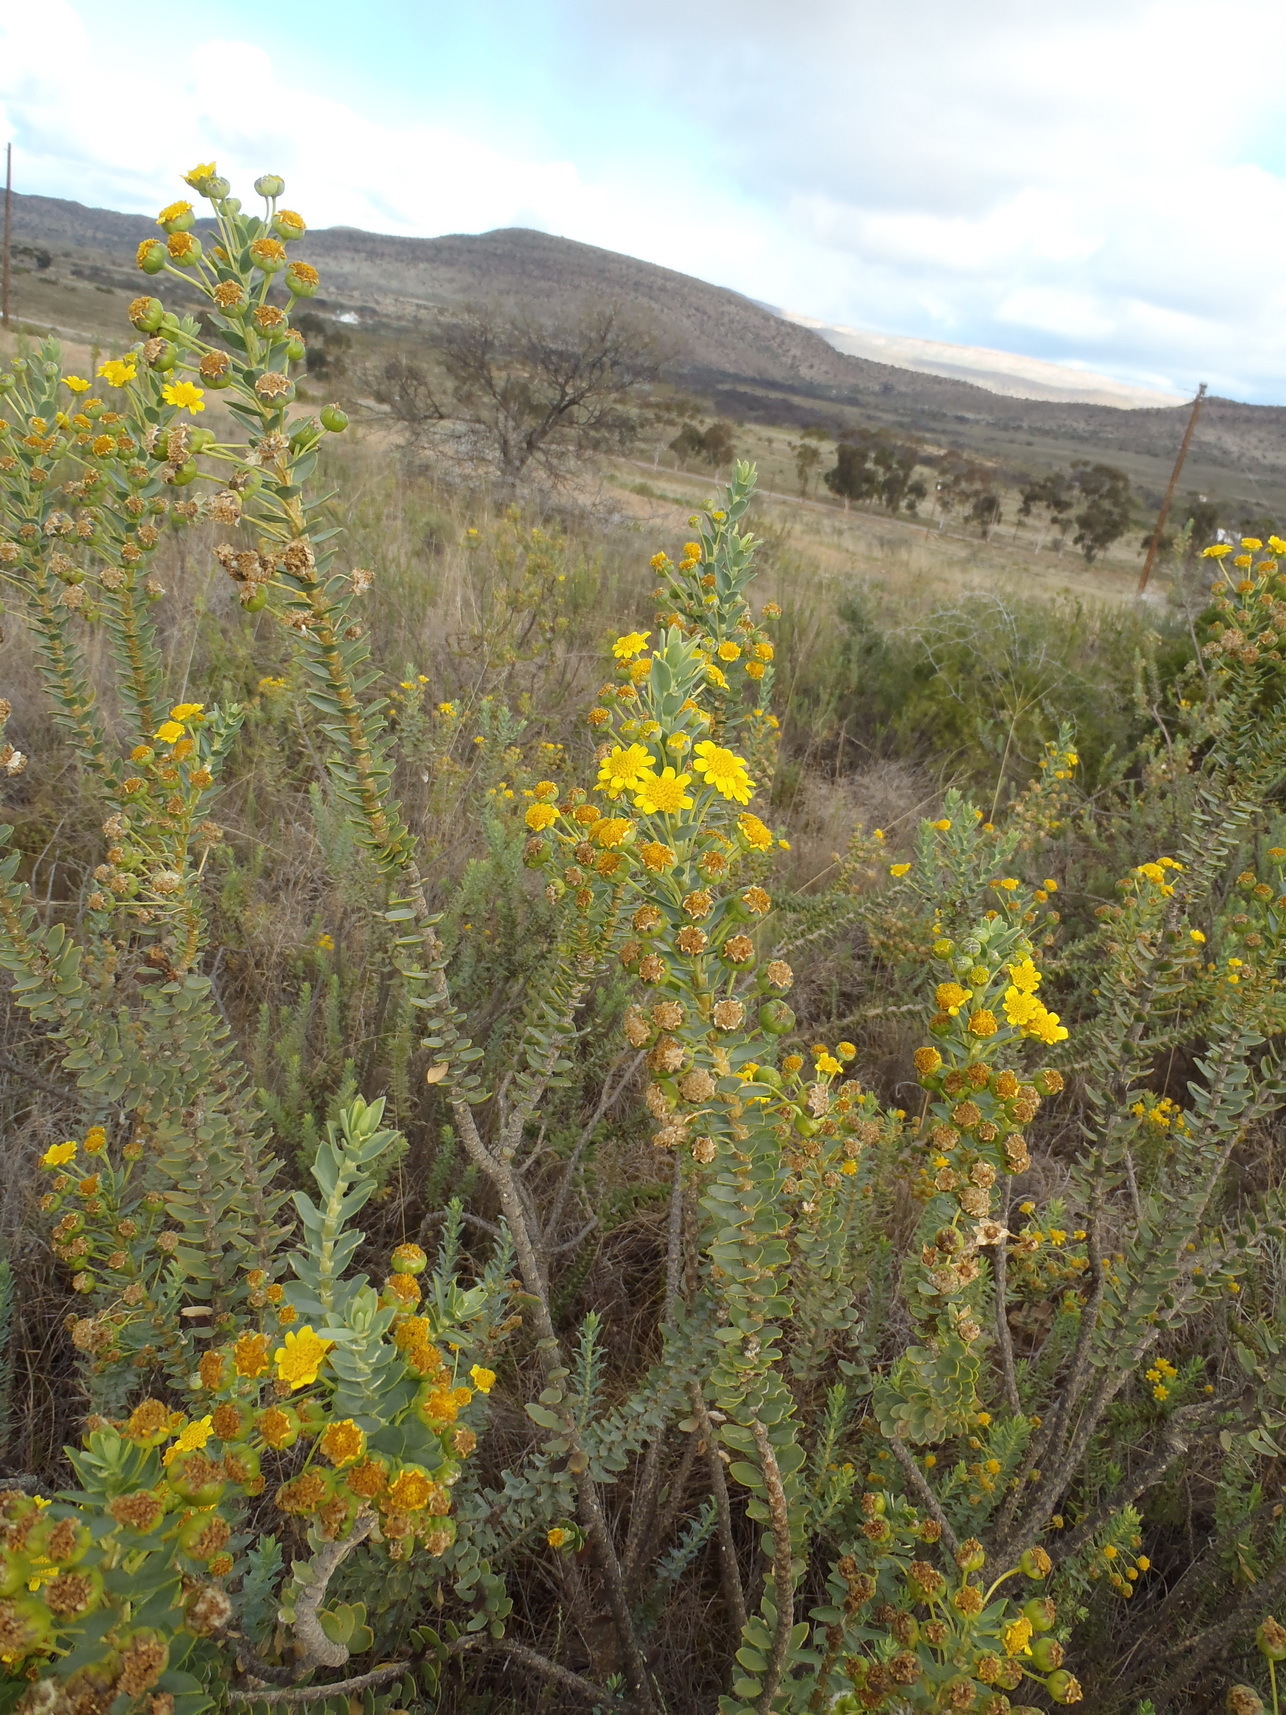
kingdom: Plantae
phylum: Tracheophyta
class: Magnoliopsida
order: Asterales
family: Asteraceae
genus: Euryops
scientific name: Euryops lateriflorus
